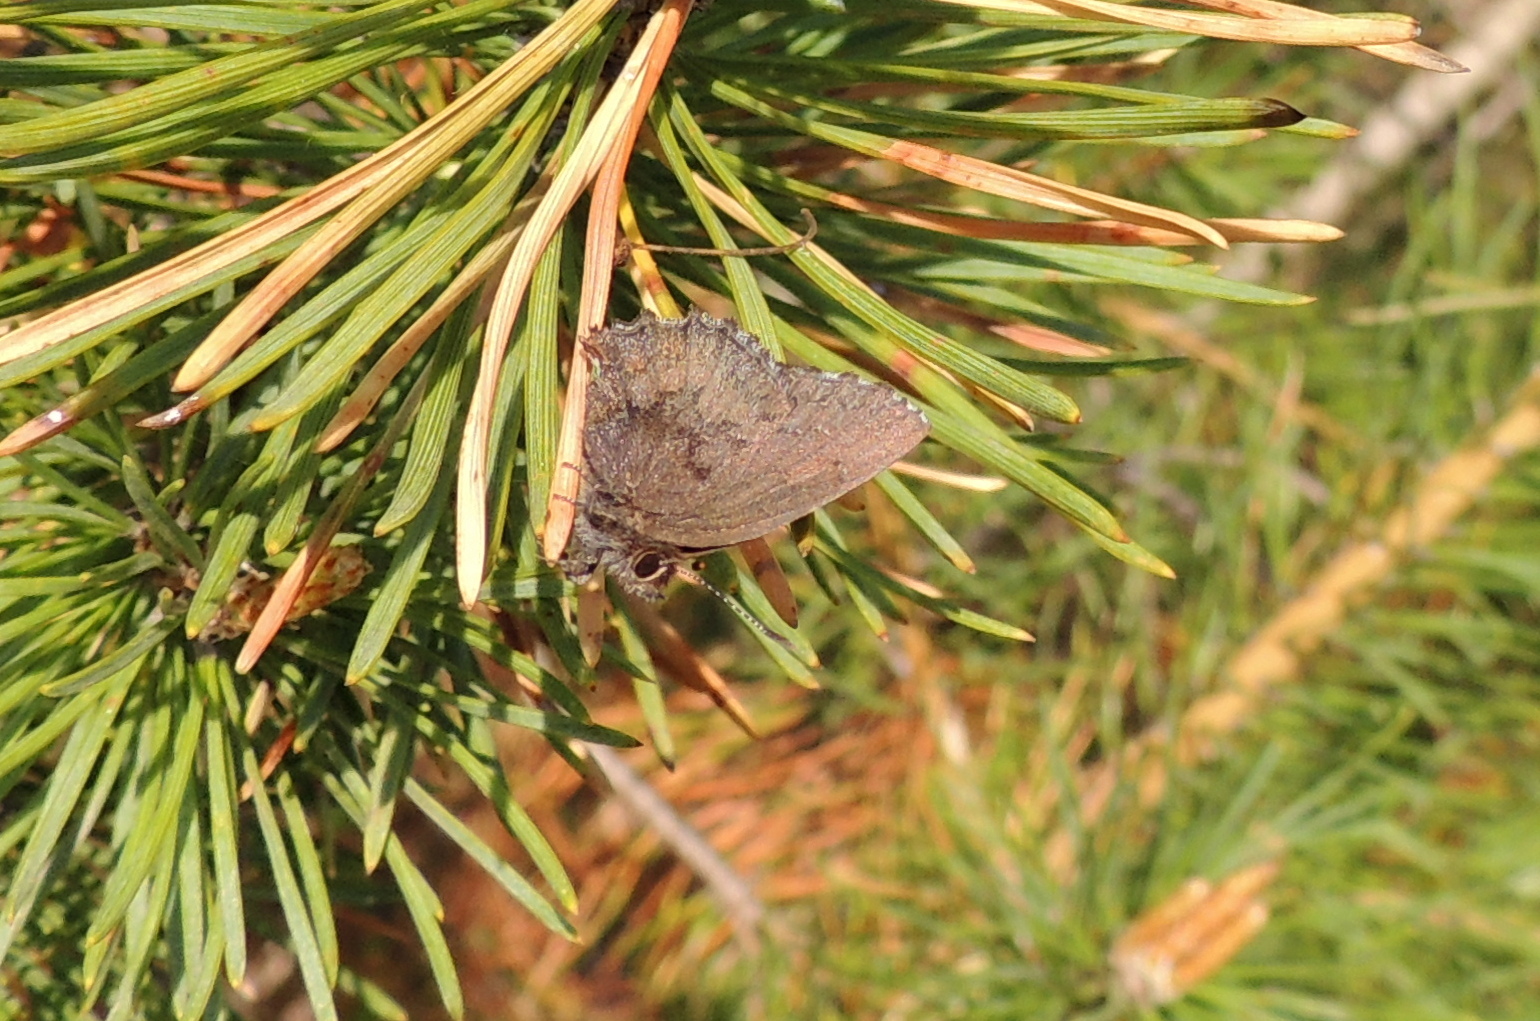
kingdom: Animalia
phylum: Arthropoda
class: Insecta
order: Lepidoptera
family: Lycaenidae
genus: Ginzia
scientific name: Ginzia Ahlbergia frivaldszkyi
